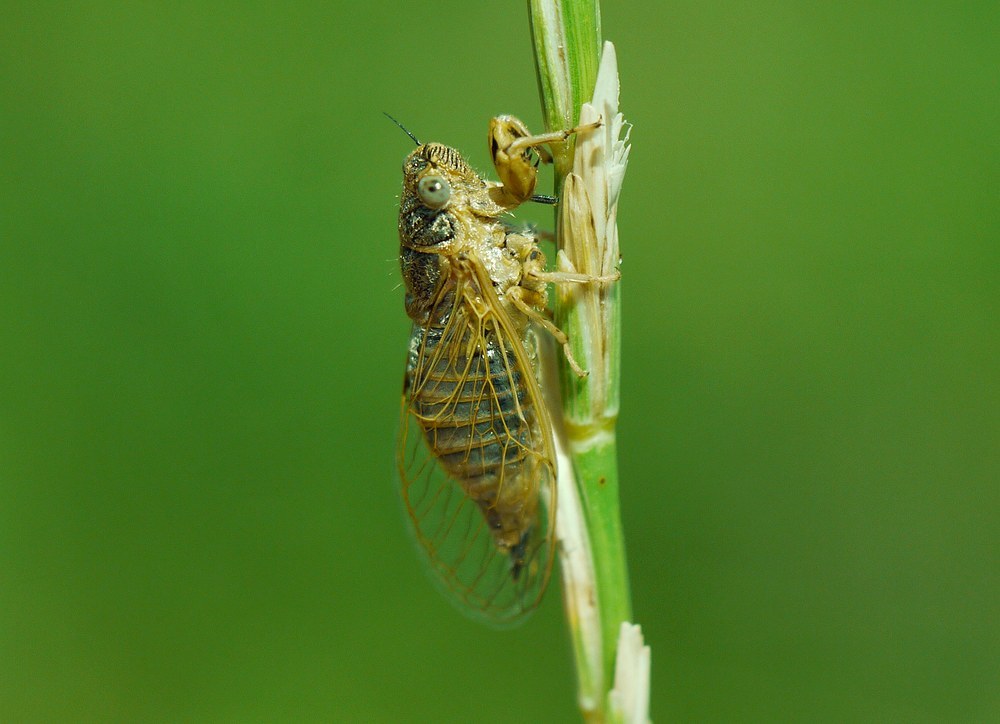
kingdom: Animalia
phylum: Arthropoda
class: Insecta
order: Hemiptera
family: Cicadidae
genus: Oligoglena
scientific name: Oligoglena tibialis
